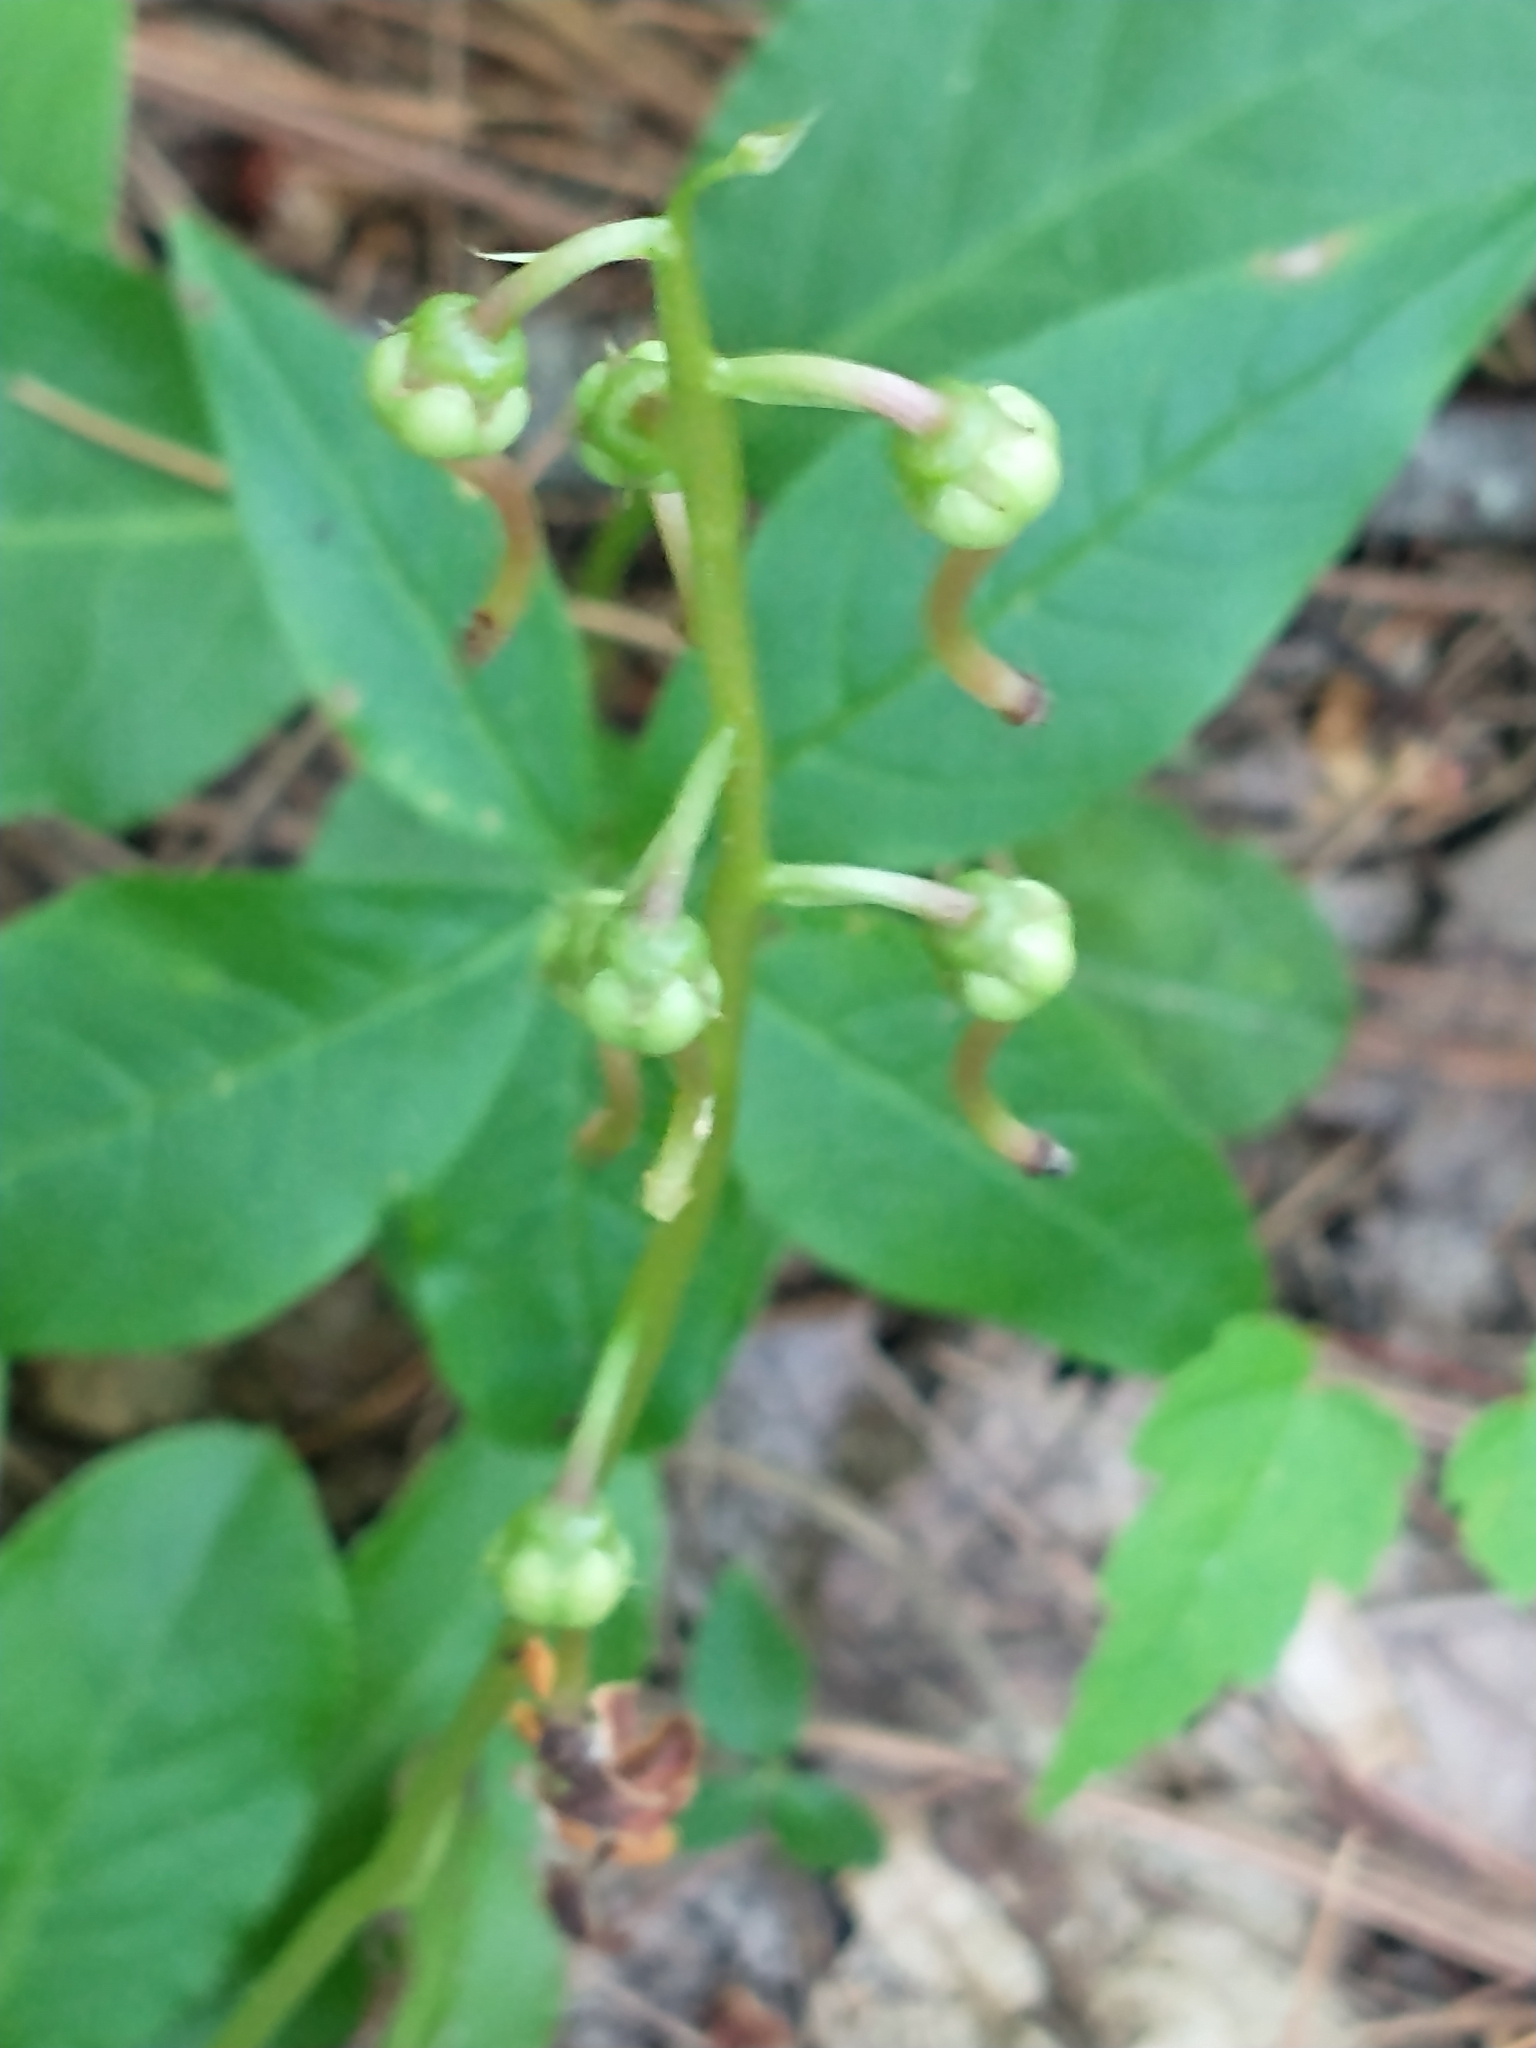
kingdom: Plantae
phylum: Tracheophyta
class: Magnoliopsida
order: Ericales
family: Ericaceae
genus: Pyrola
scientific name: Pyrola elliptica
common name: Shinleaf
